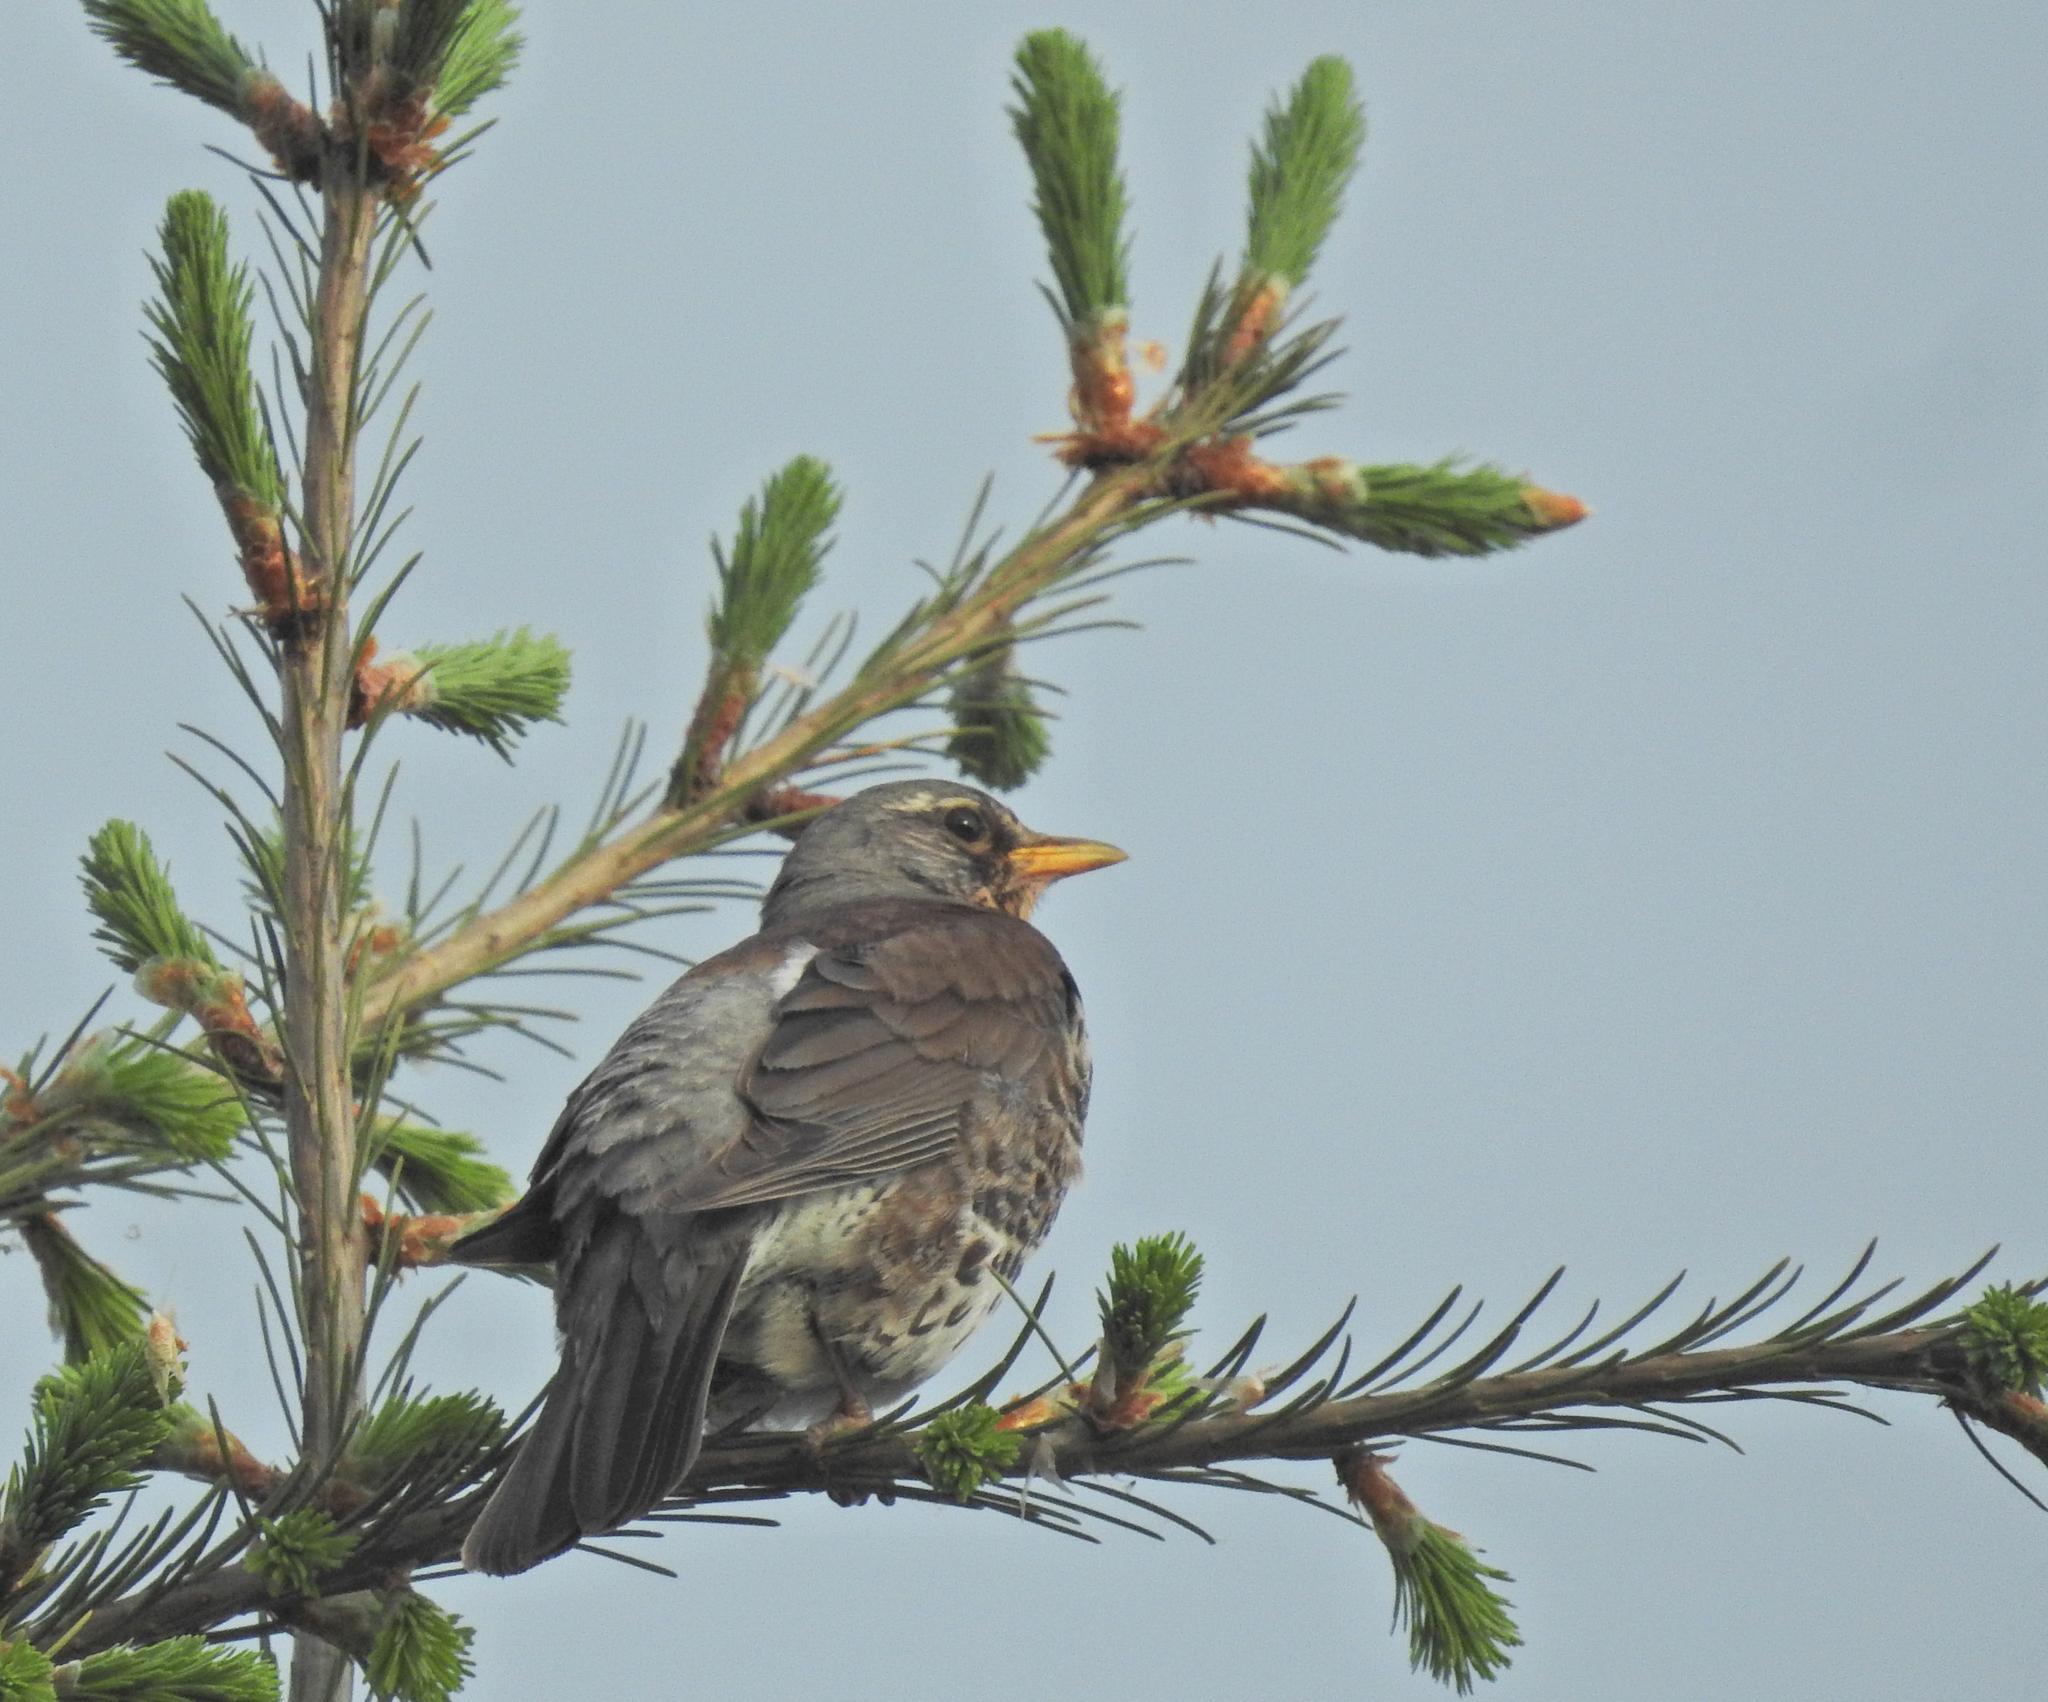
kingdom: Animalia
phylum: Chordata
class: Aves
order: Passeriformes
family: Turdidae
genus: Turdus
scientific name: Turdus pilaris
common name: Fieldfare
